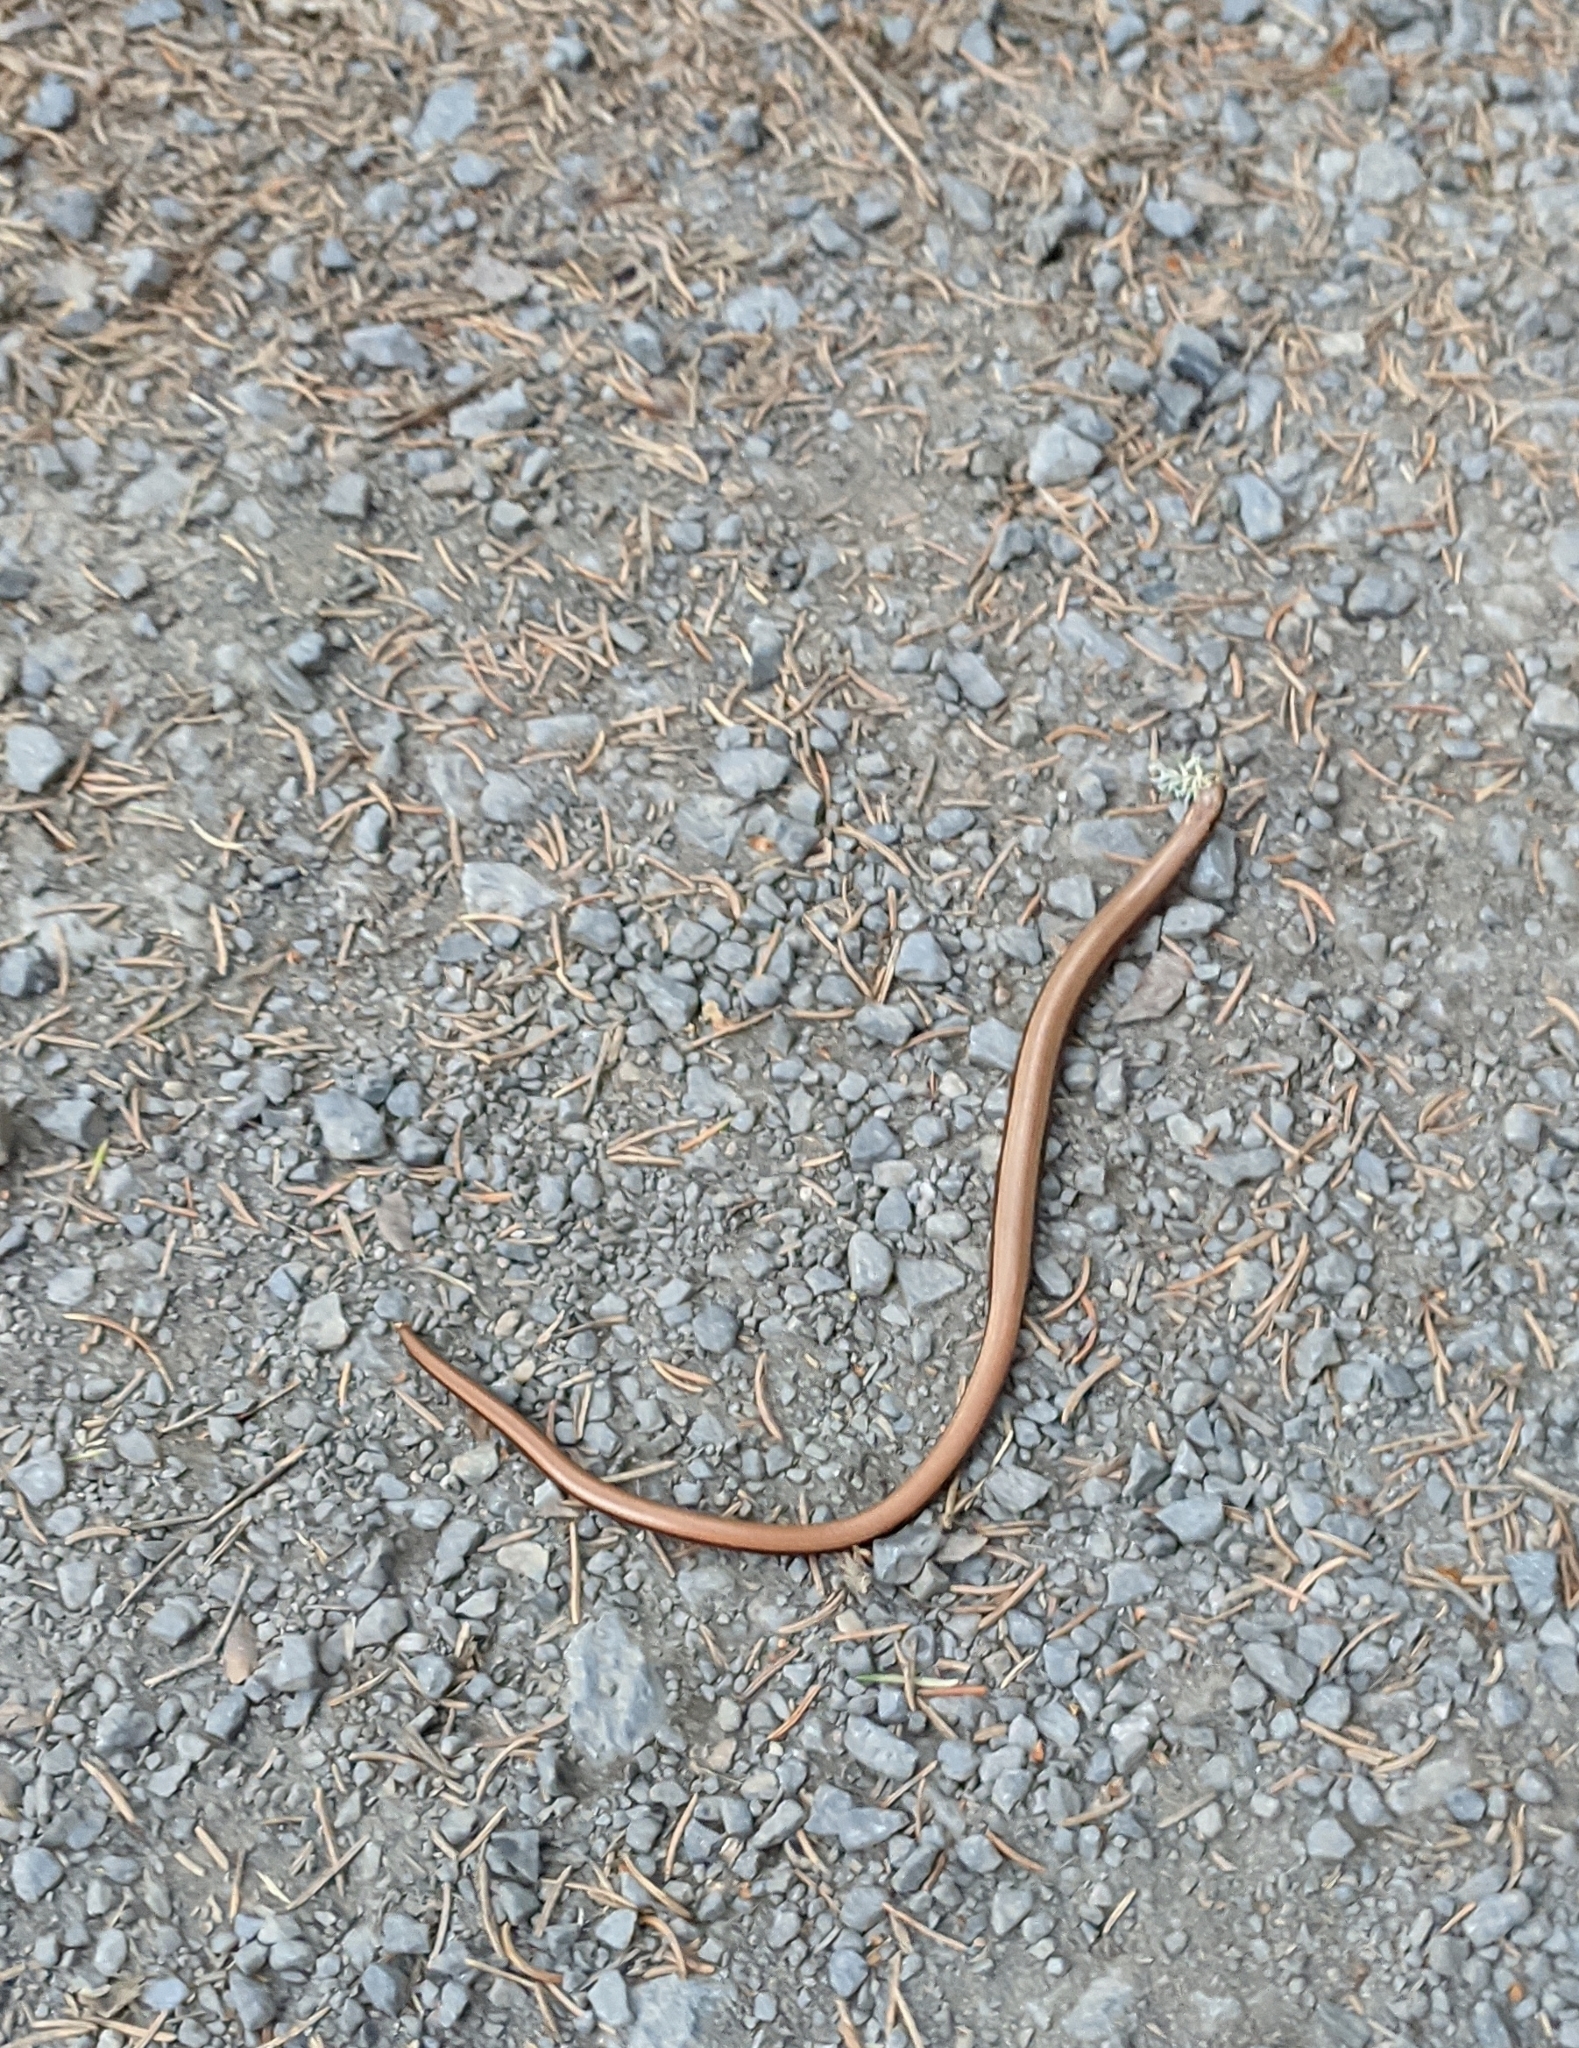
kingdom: Animalia
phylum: Chordata
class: Squamata
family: Anguidae
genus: Anguis
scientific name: Anguis fragilis
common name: Slow worm
